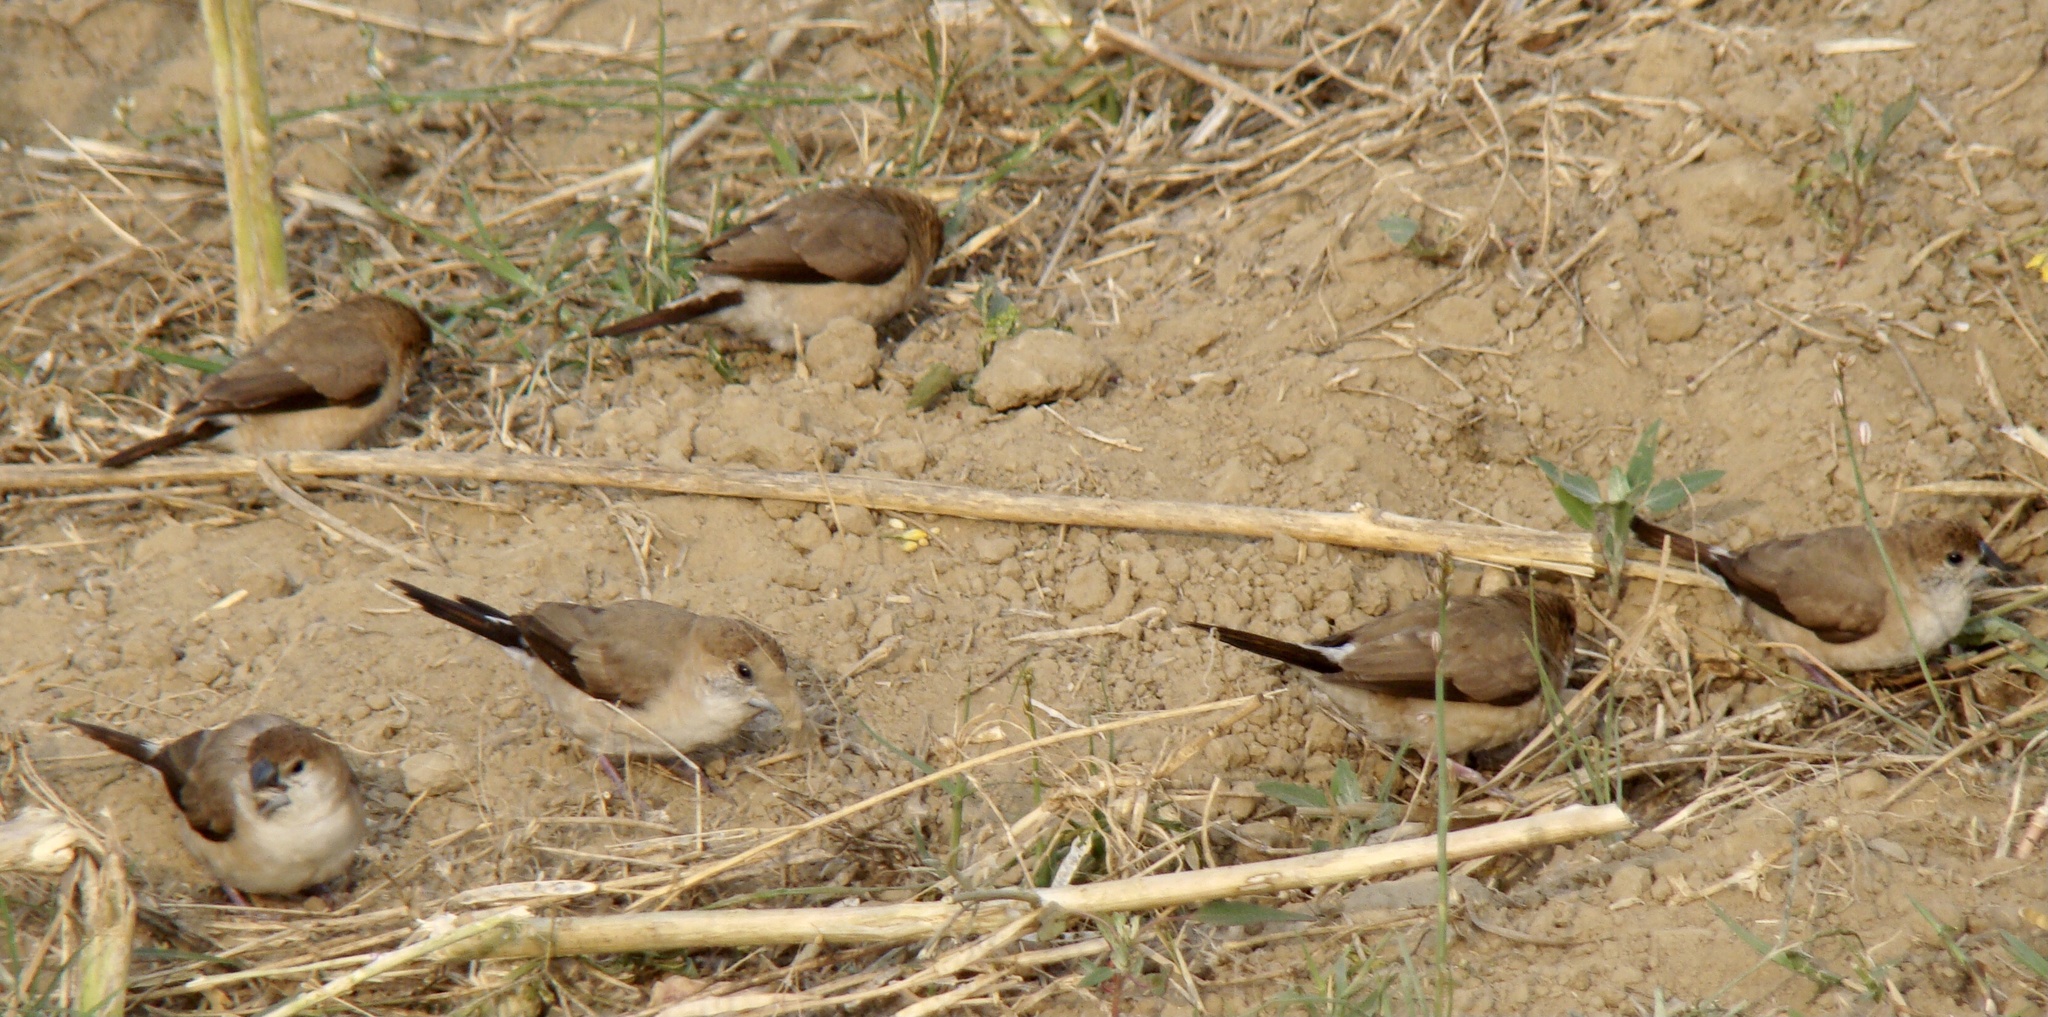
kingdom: Animalia
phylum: Chordata
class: Aves
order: Passeriformes
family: Estrildidae
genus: Euodice
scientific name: Euodice malabarica
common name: Indian silverbill
